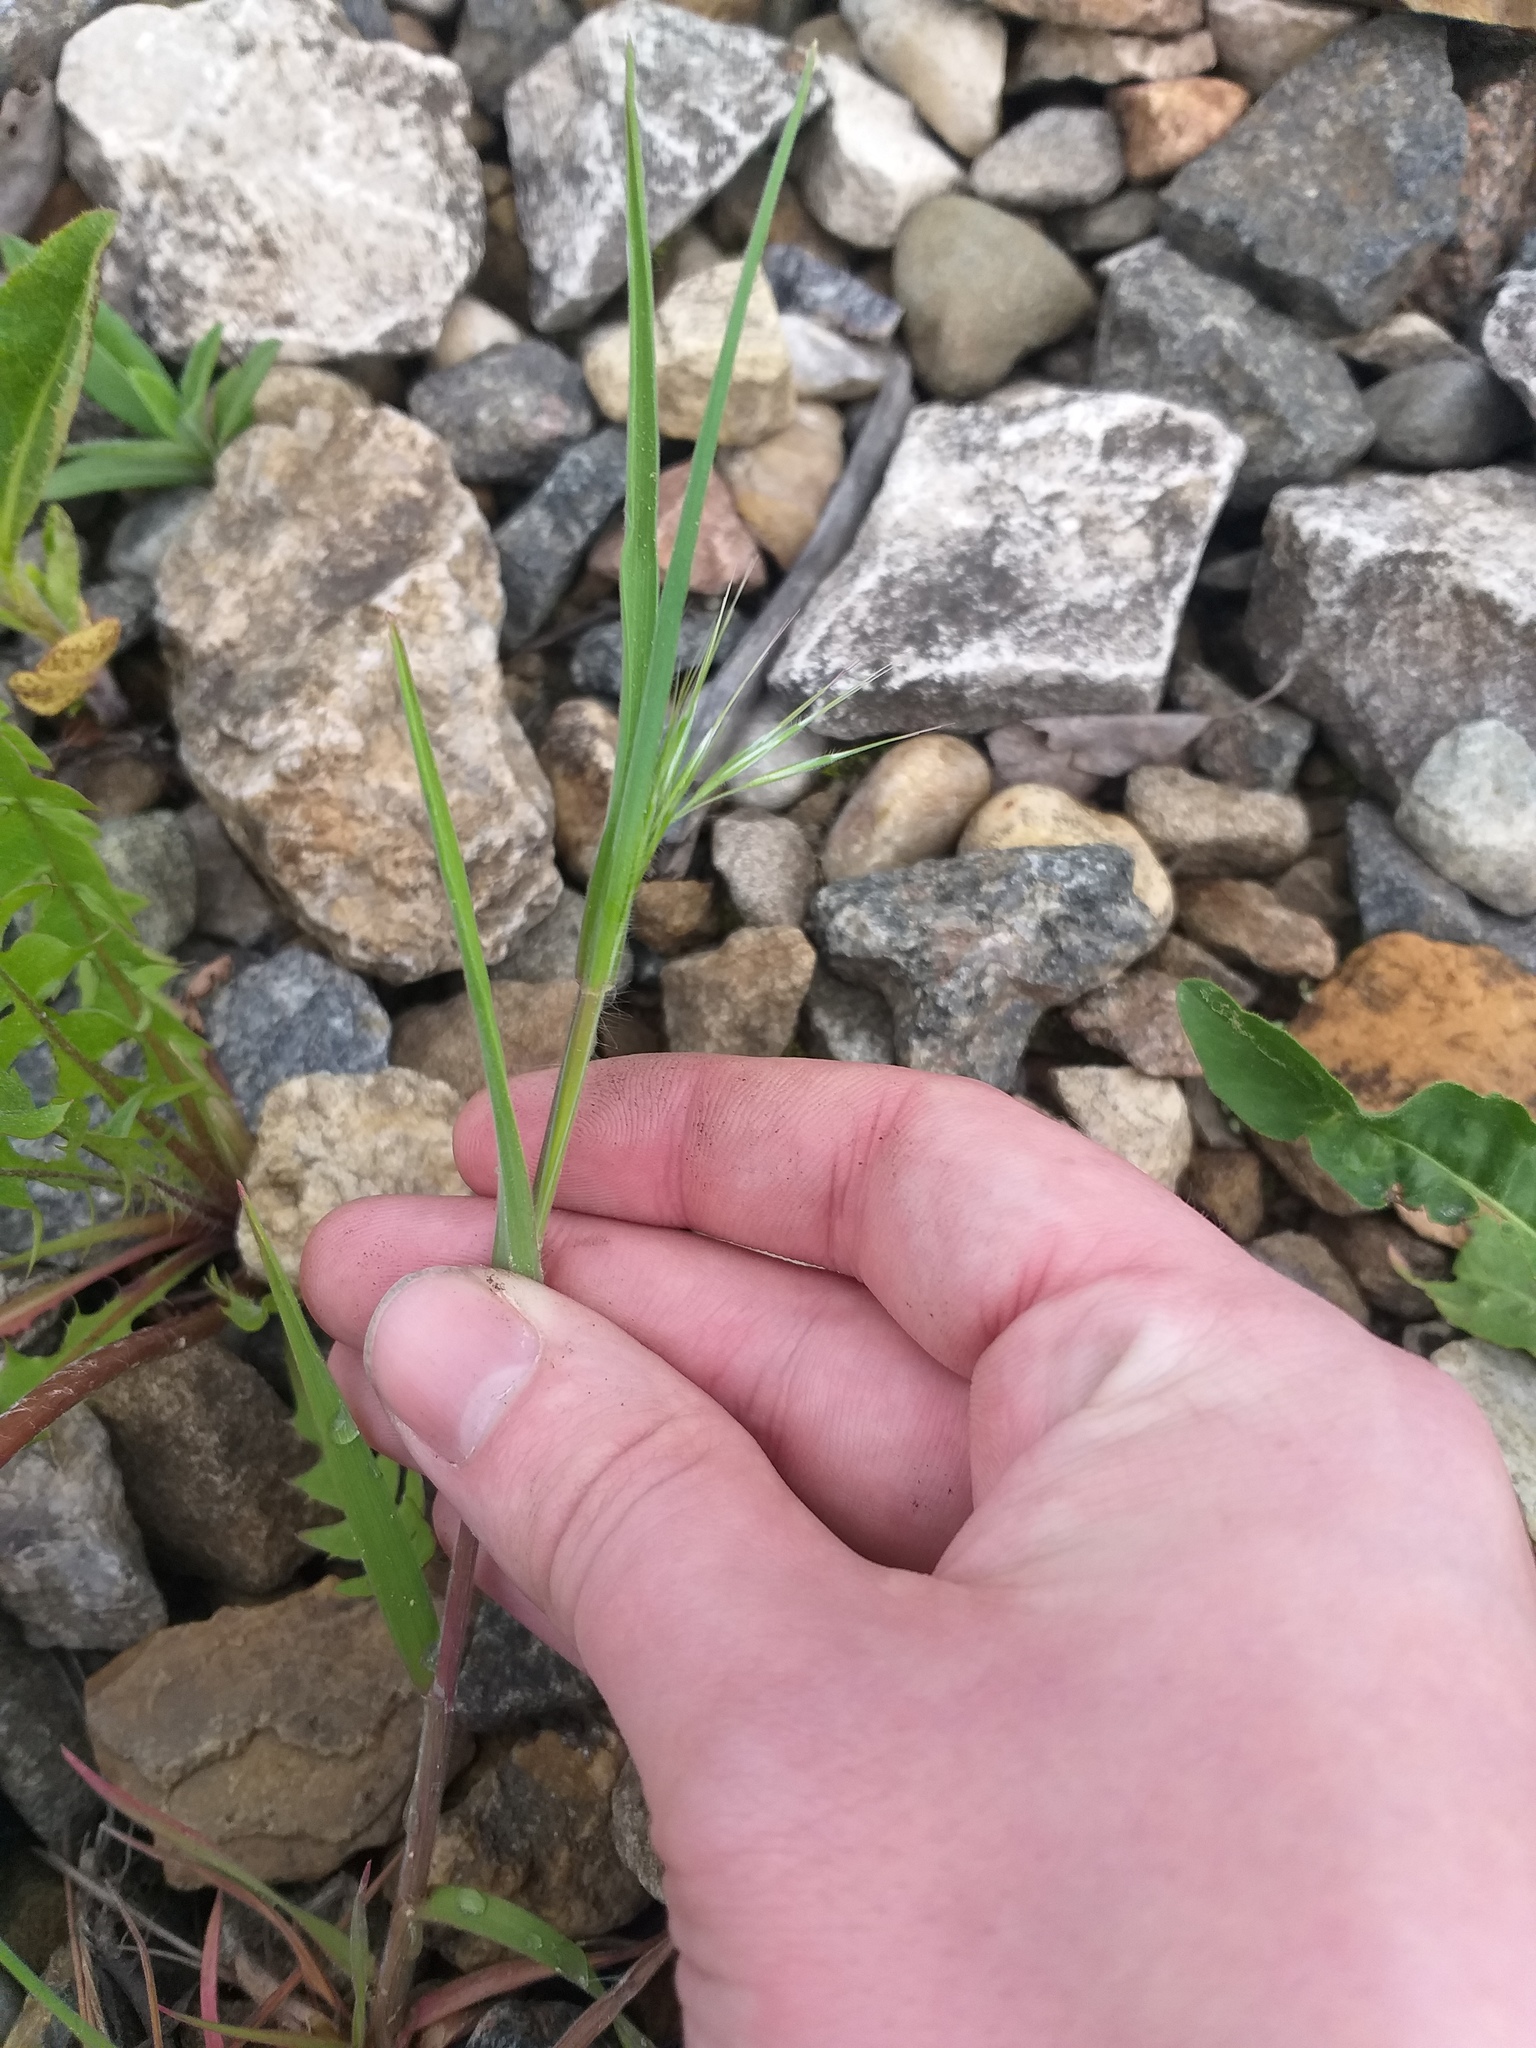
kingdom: Plantae
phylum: Tracheophyta
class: Liliopsida
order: Poales
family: Poaceae
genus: Bromus
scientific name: Bromus tectorum
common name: Cheatgrass
